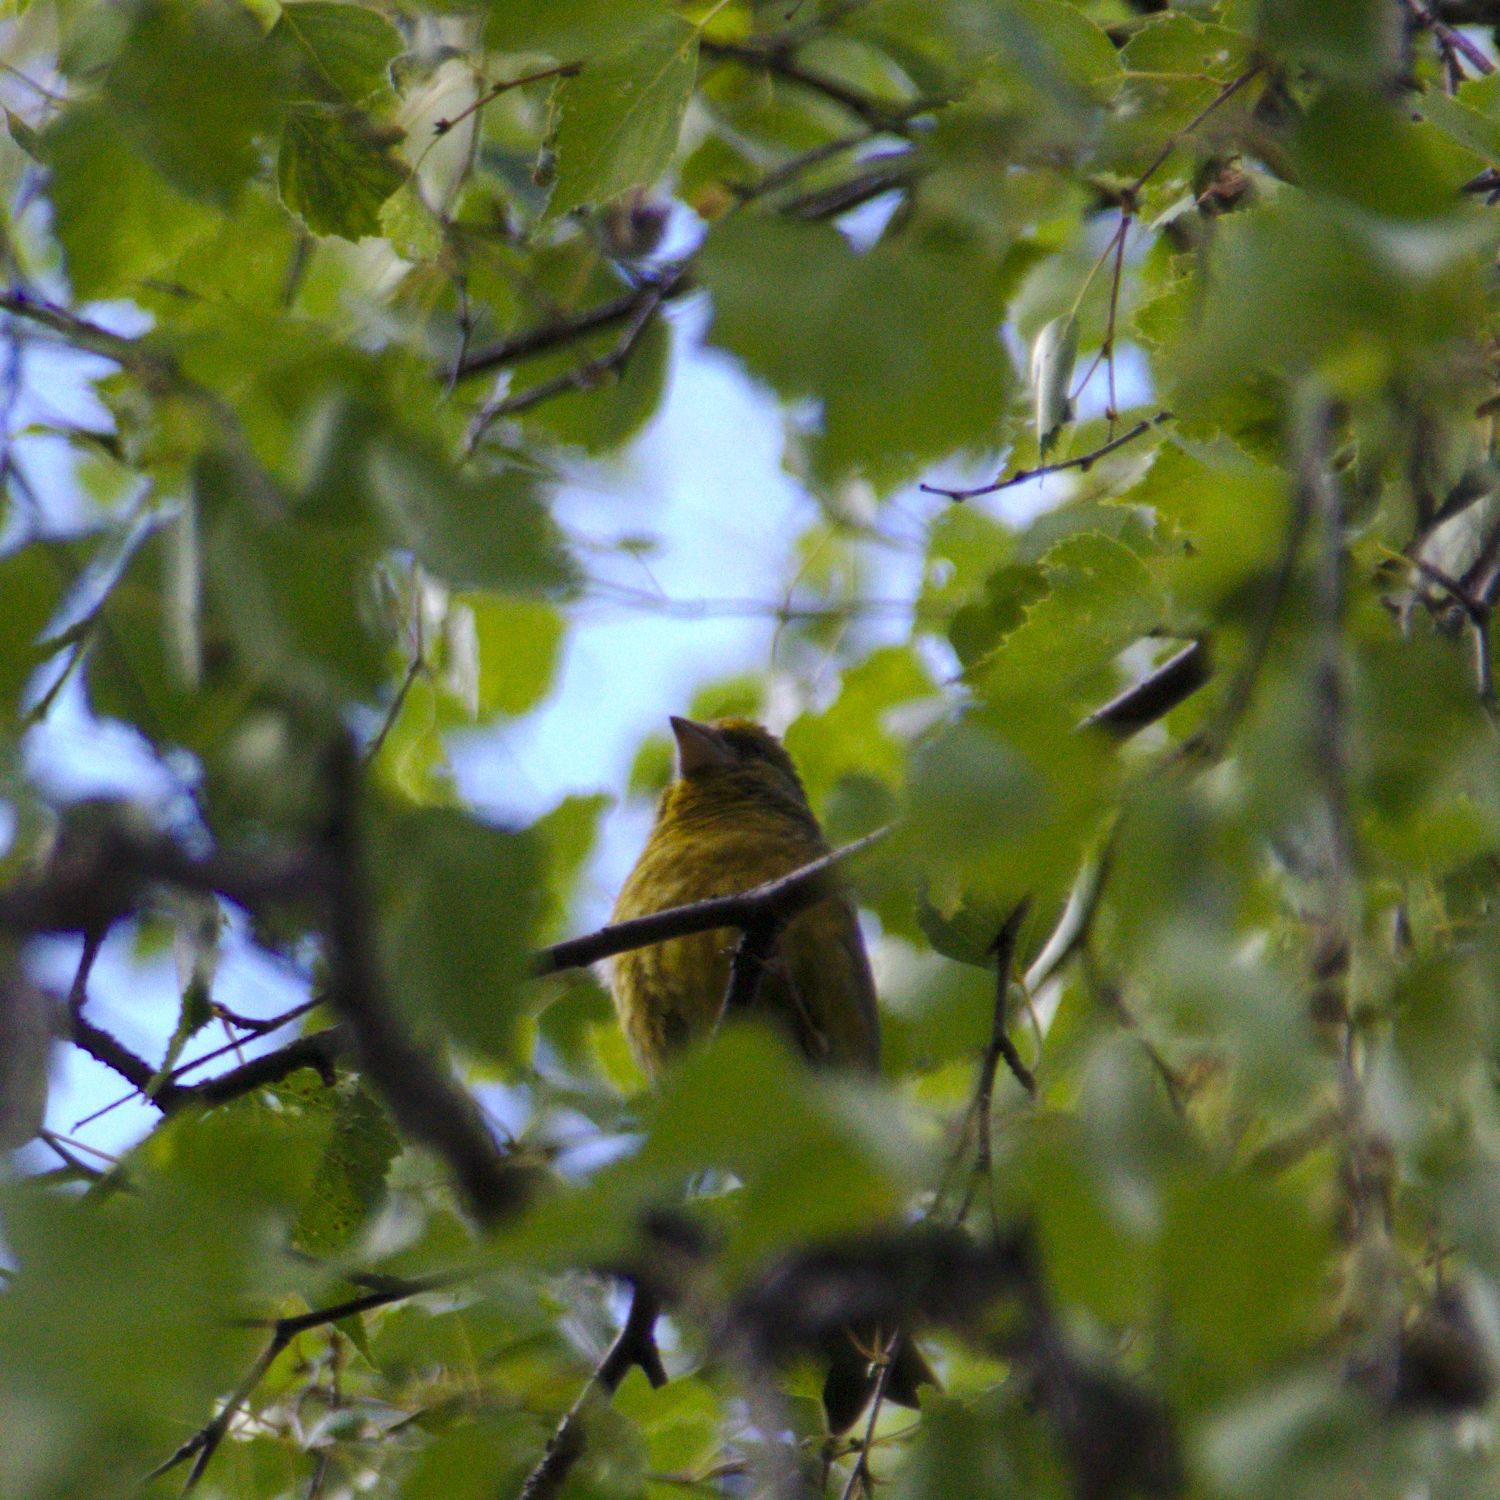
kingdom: Plantae
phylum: Tracheophyta
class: Liliopsida
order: Poales
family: Poaceae
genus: Chloris
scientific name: Chloris chloris
